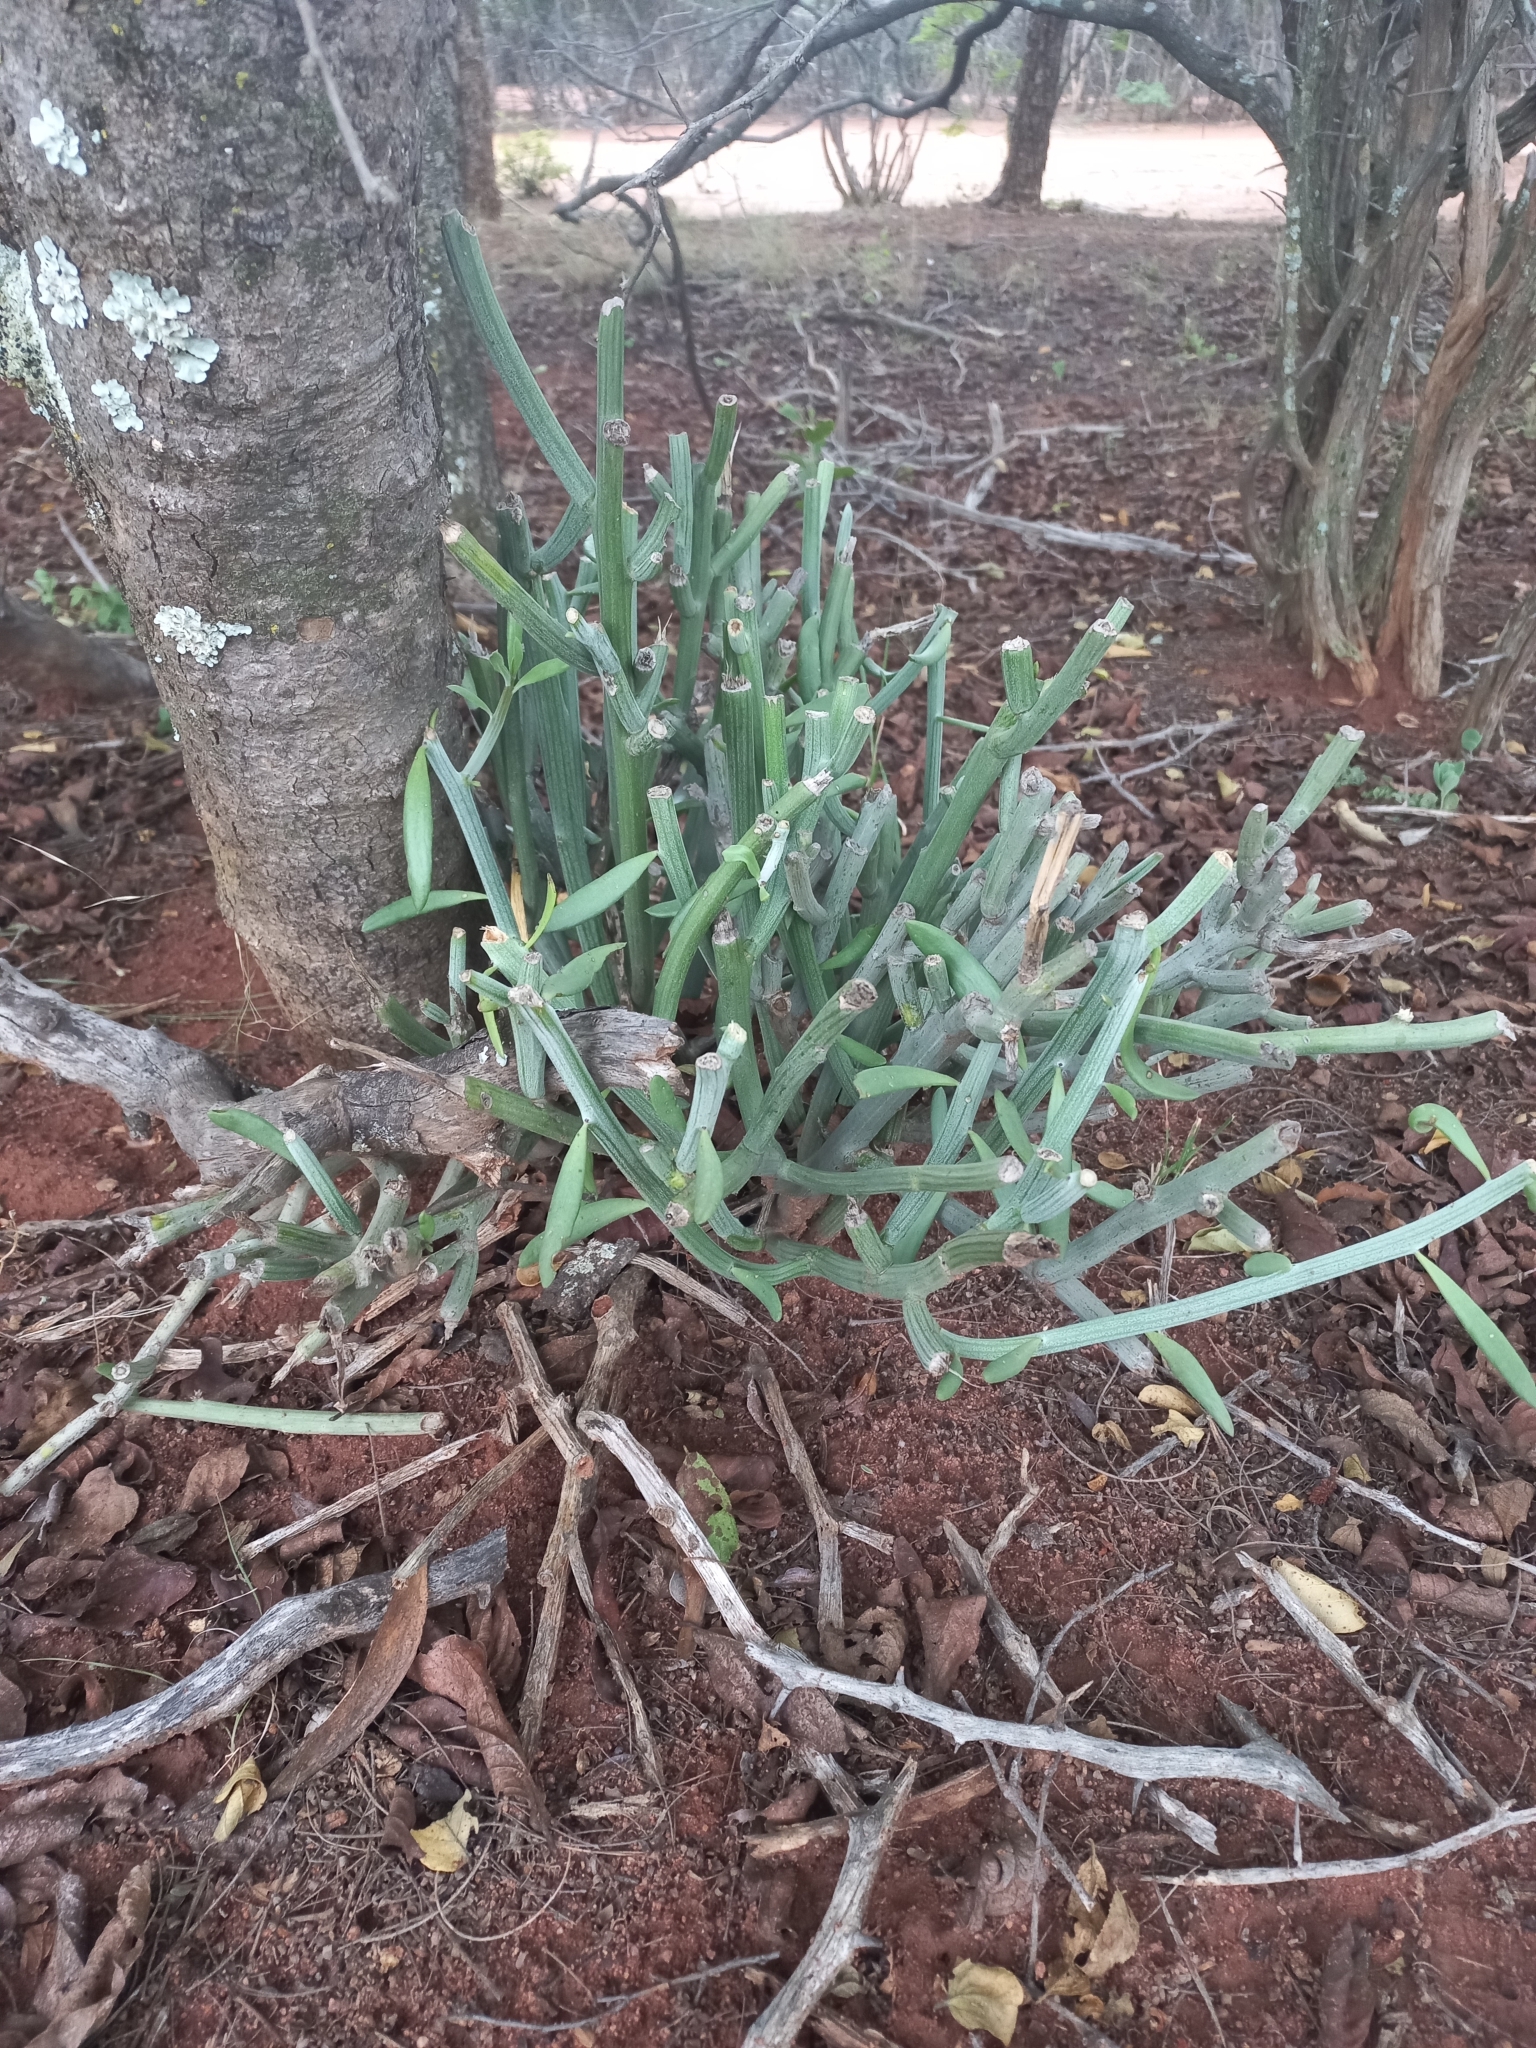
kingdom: Plantae
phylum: Tracheophyta
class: Magnoliopsida
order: Malpighiales
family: Euphorbiaceae
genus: Euphorbia
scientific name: Euphorbia tirucalli
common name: Indiantree spurge
